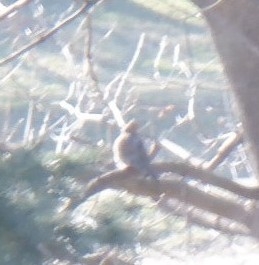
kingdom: Animalia
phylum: Chordata
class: Aves
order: Columbiformes
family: Columbidae
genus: Zenaida
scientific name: Zenaida macroura
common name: Mourning dove
